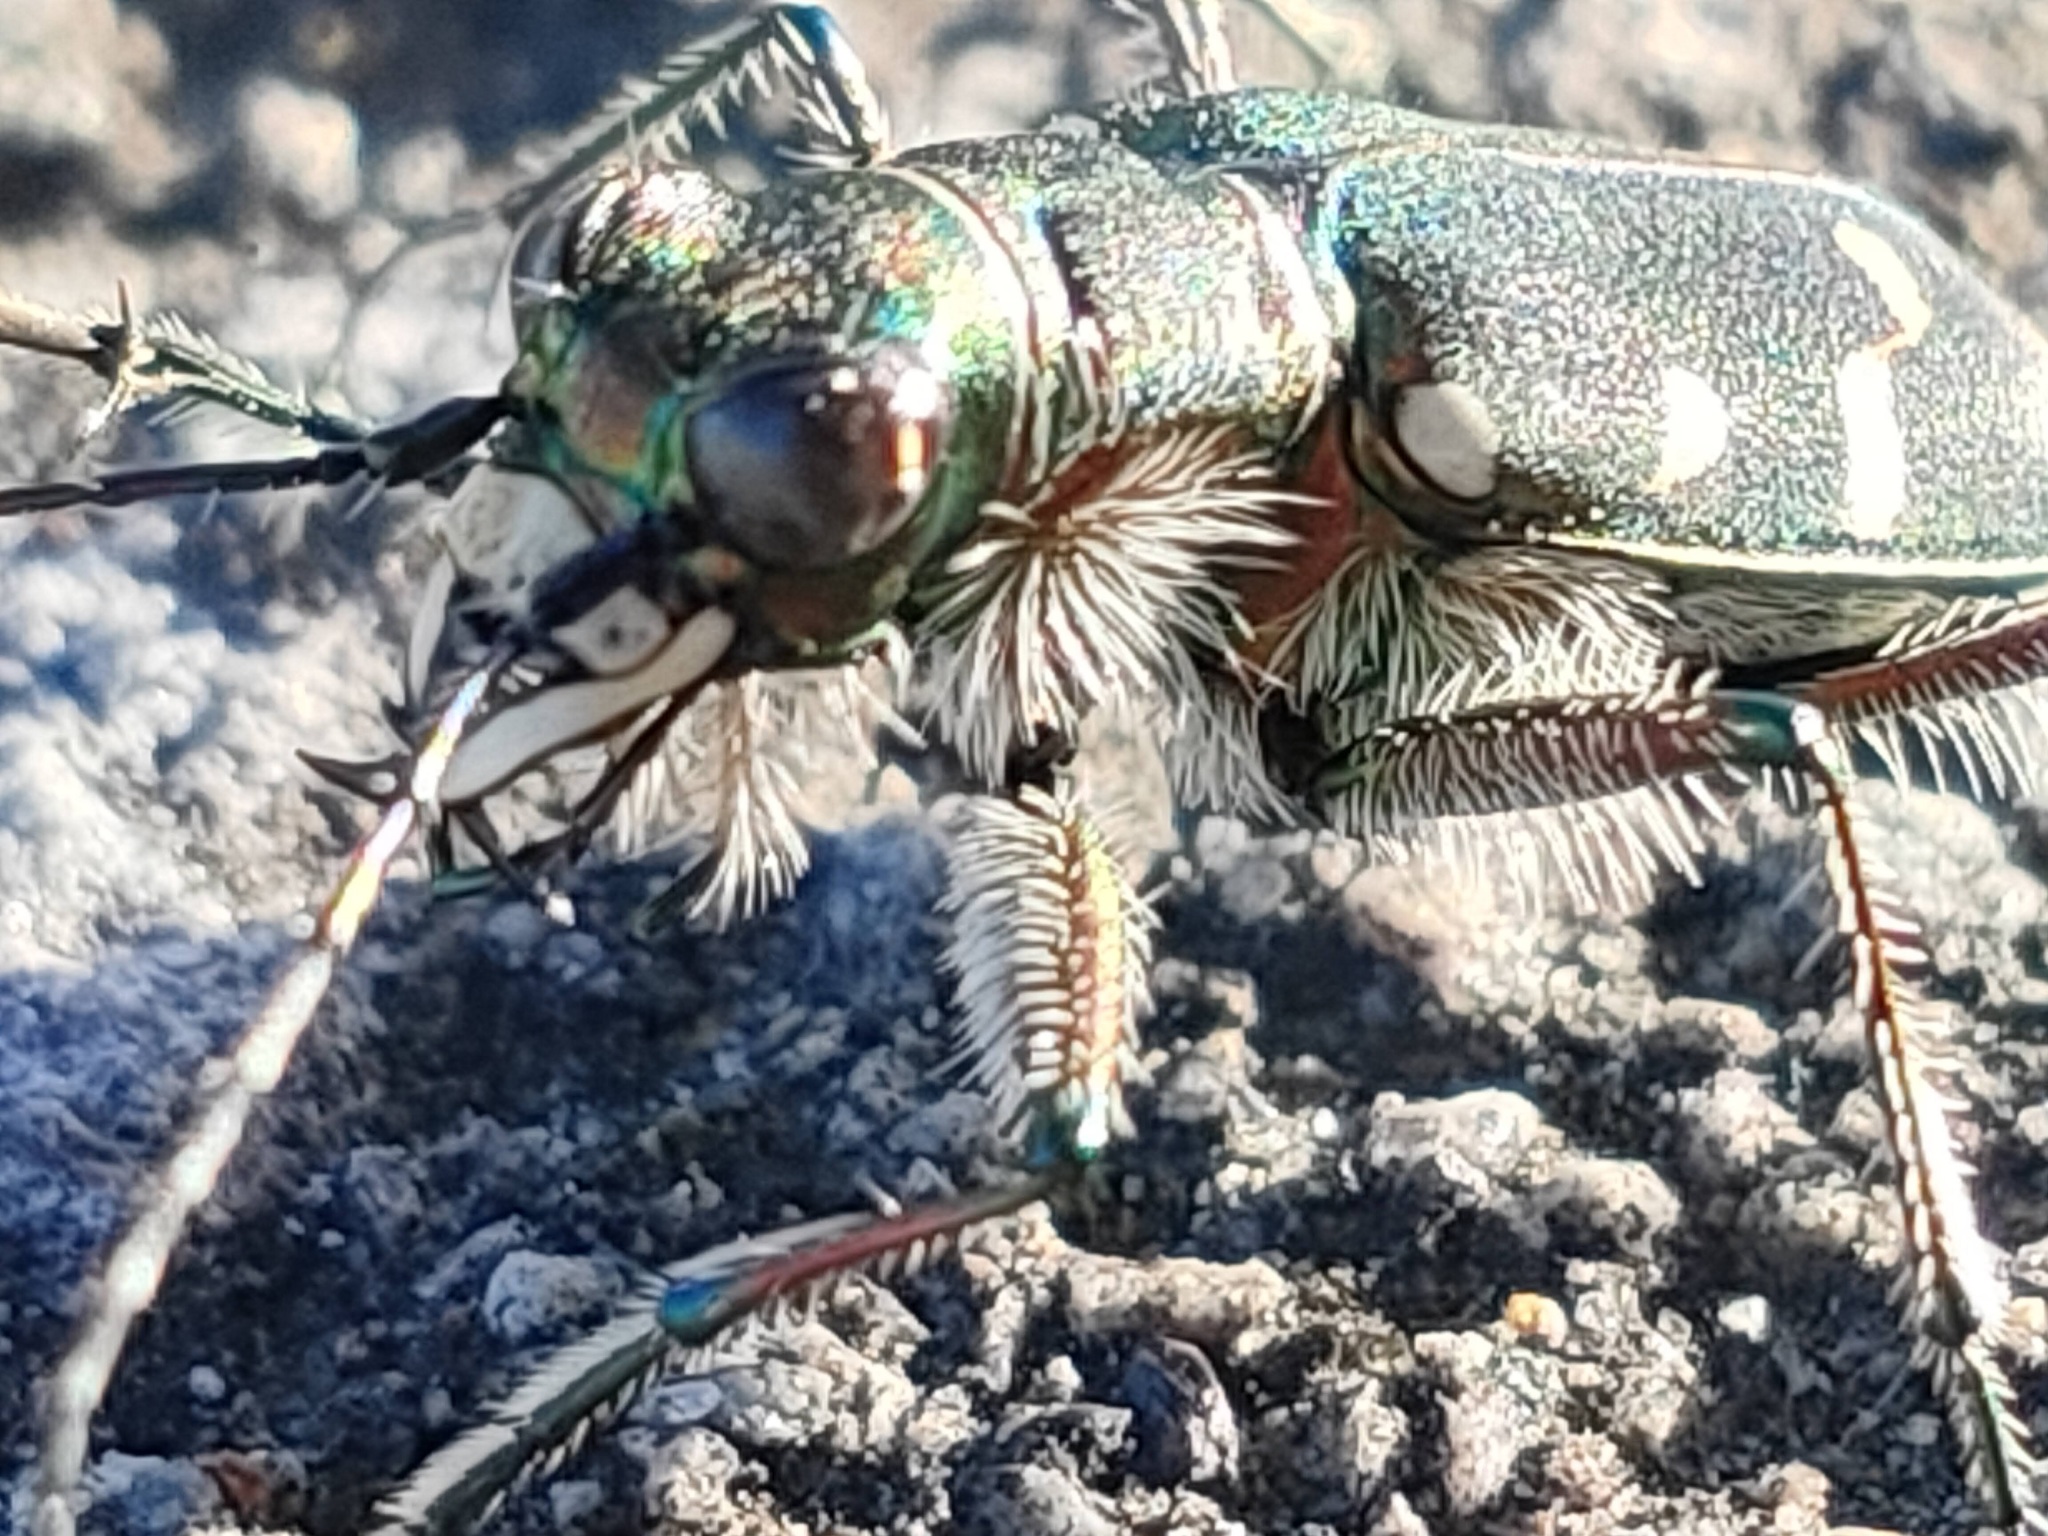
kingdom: Animalia
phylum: Arthropoda
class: Insecta
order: Coleoptera
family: Carabidae
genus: Cicindela
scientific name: Cicindela transbaicalica
